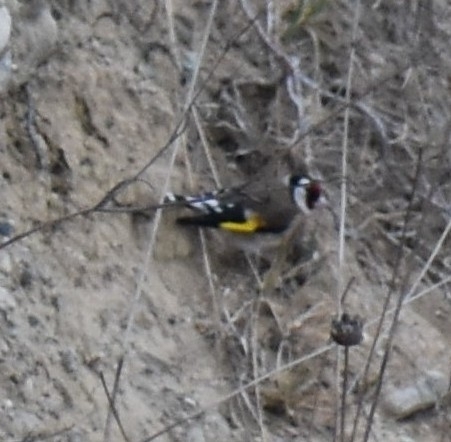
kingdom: Animalia
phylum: Chordata
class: Aves
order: Passeriformes
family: Fringillidae
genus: Carduelis
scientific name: Carduelis carduelis
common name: European goldfinch
